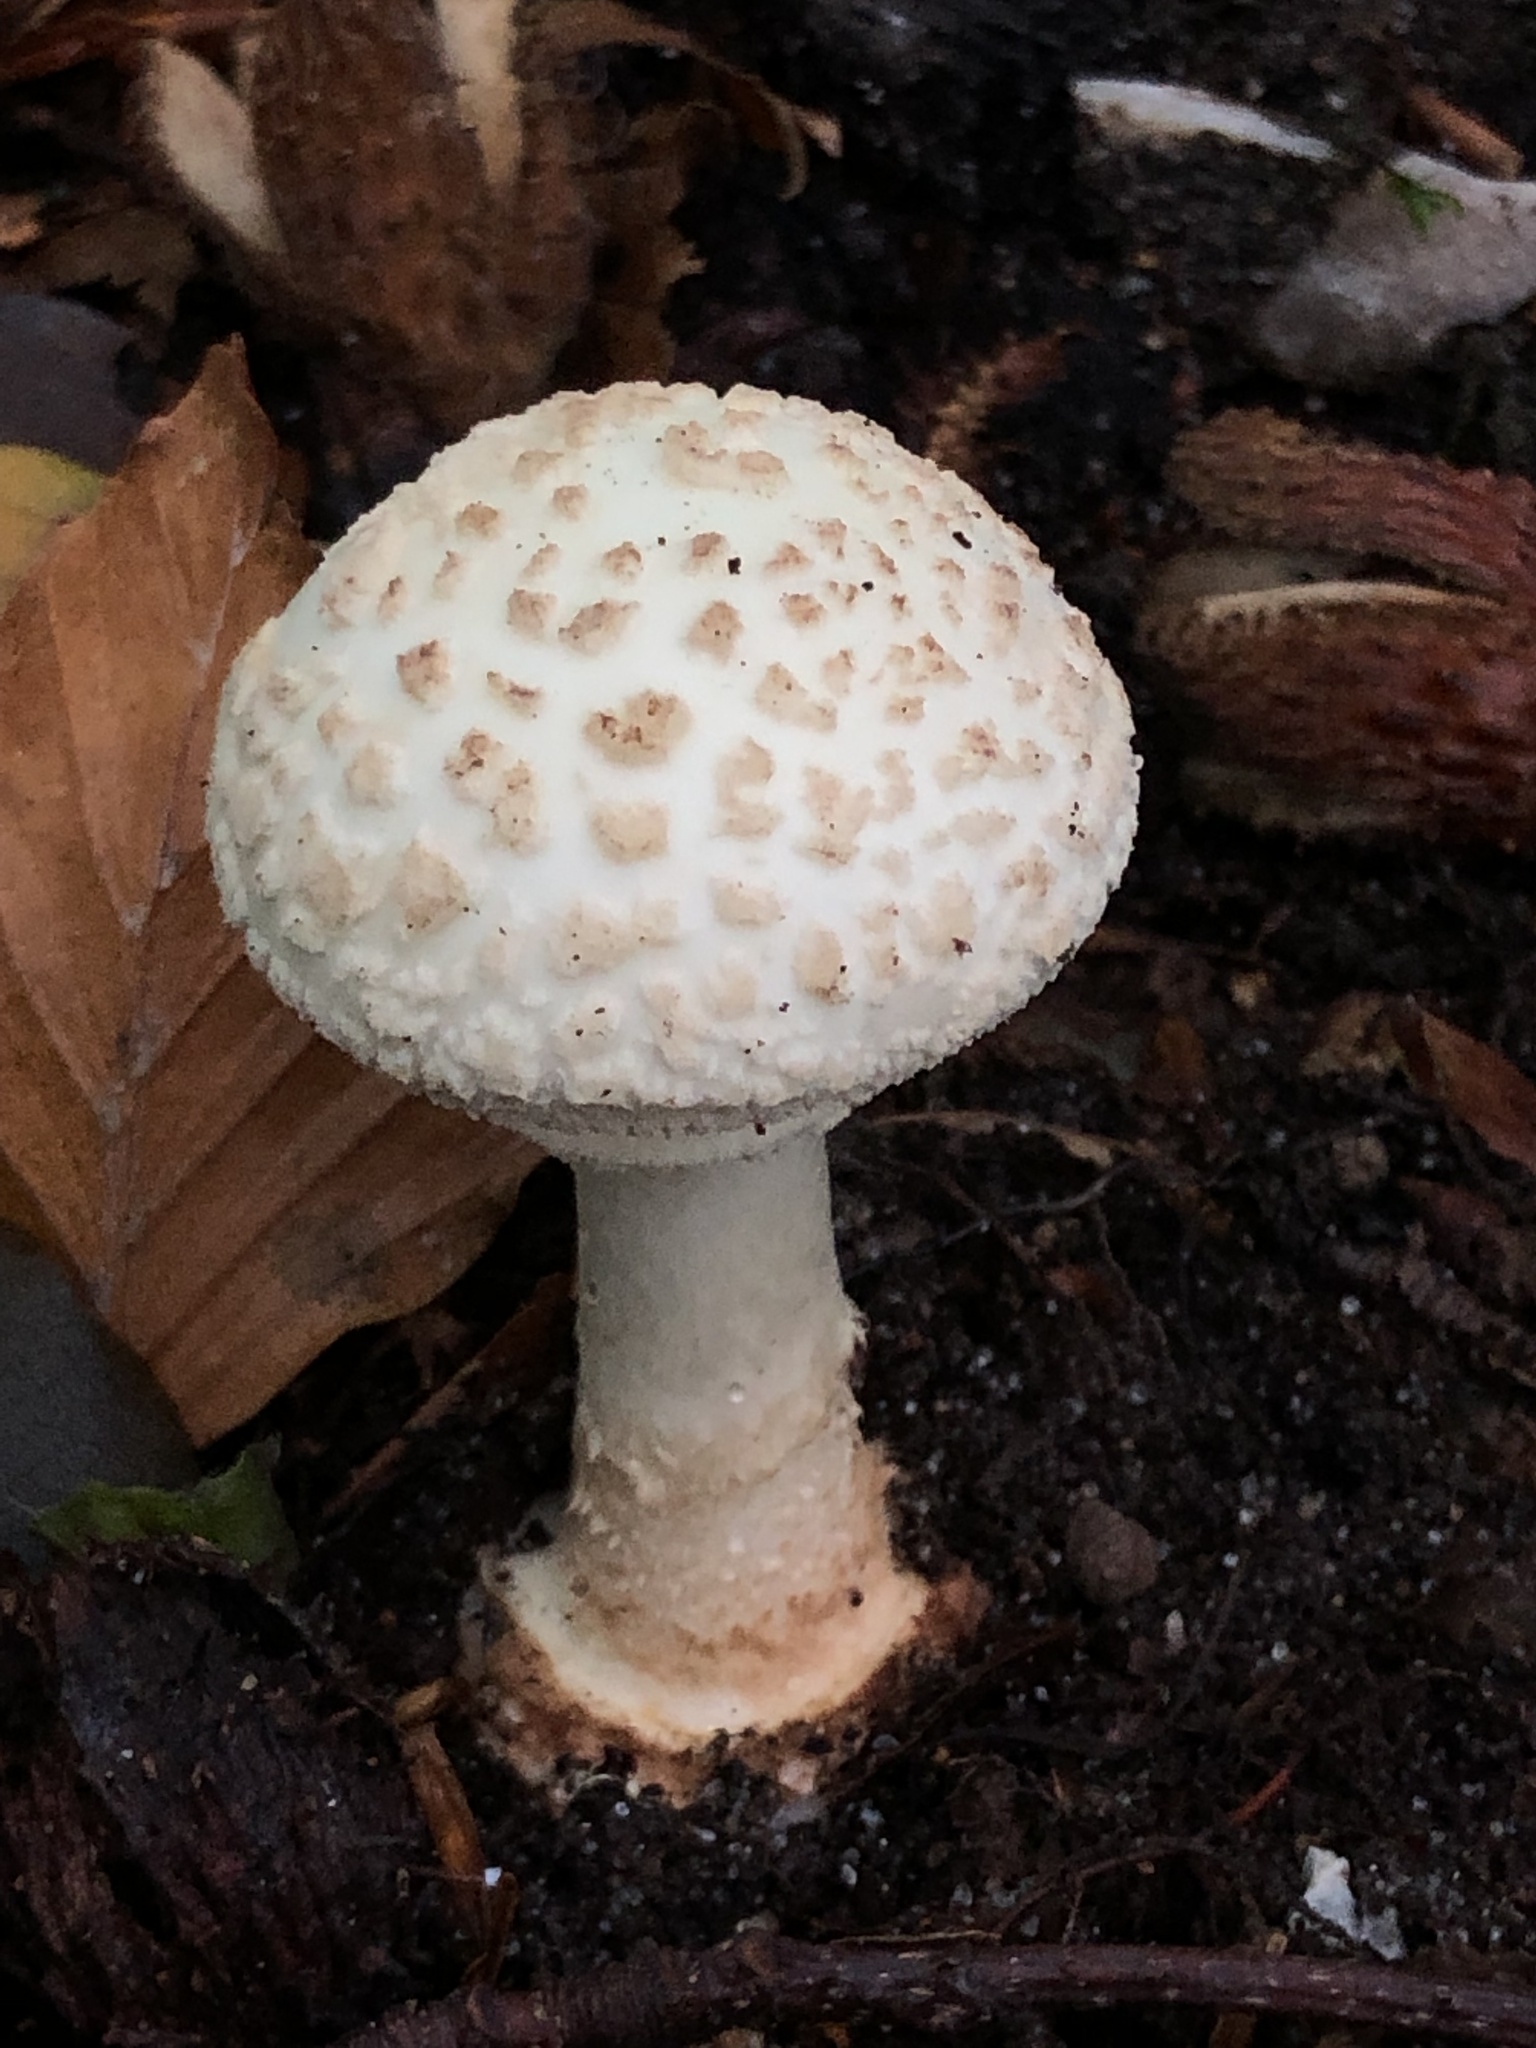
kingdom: Fungi
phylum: Basidiomycota
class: Agaricomycetes
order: Agaricales
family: Amanitaceae
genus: Amanita
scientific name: Amanita citrina
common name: False death-cap
